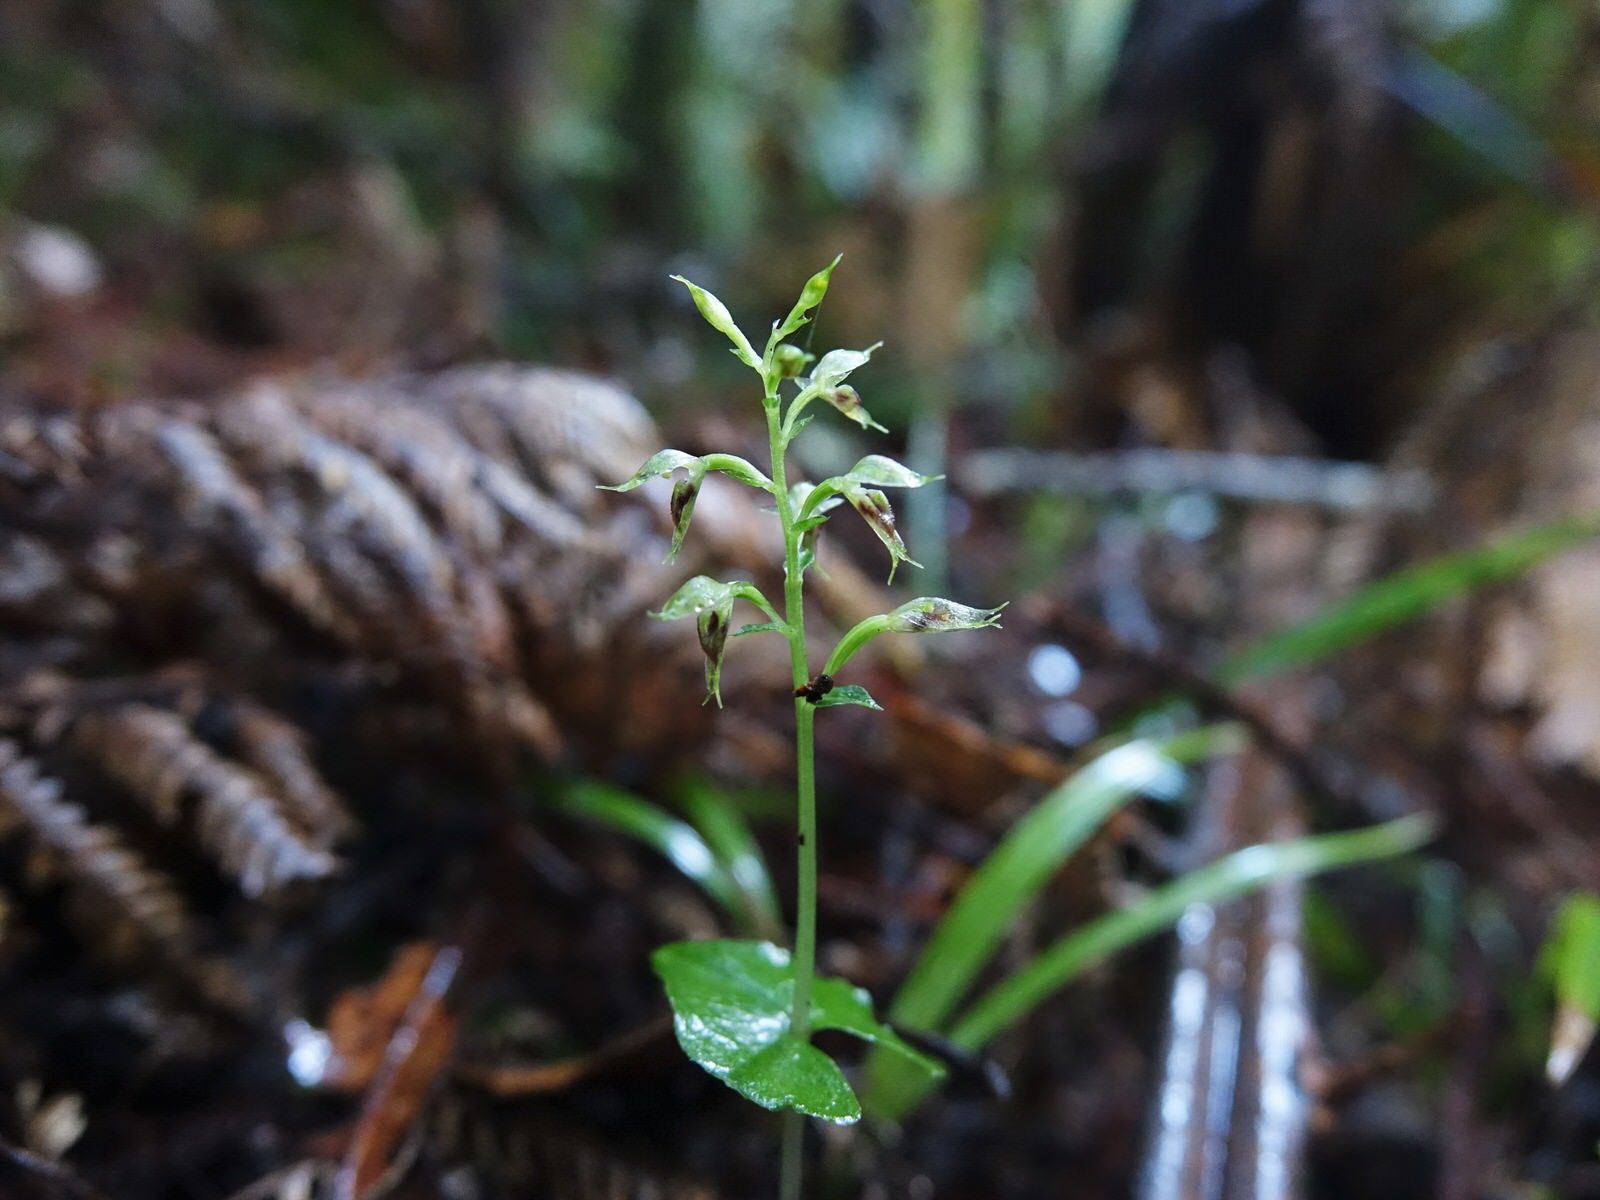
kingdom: Plantae
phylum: Tracheophyta
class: Liliopsida
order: Asparagales
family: Orchidaceae
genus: Acianthus
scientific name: Acianthus sinclairii
